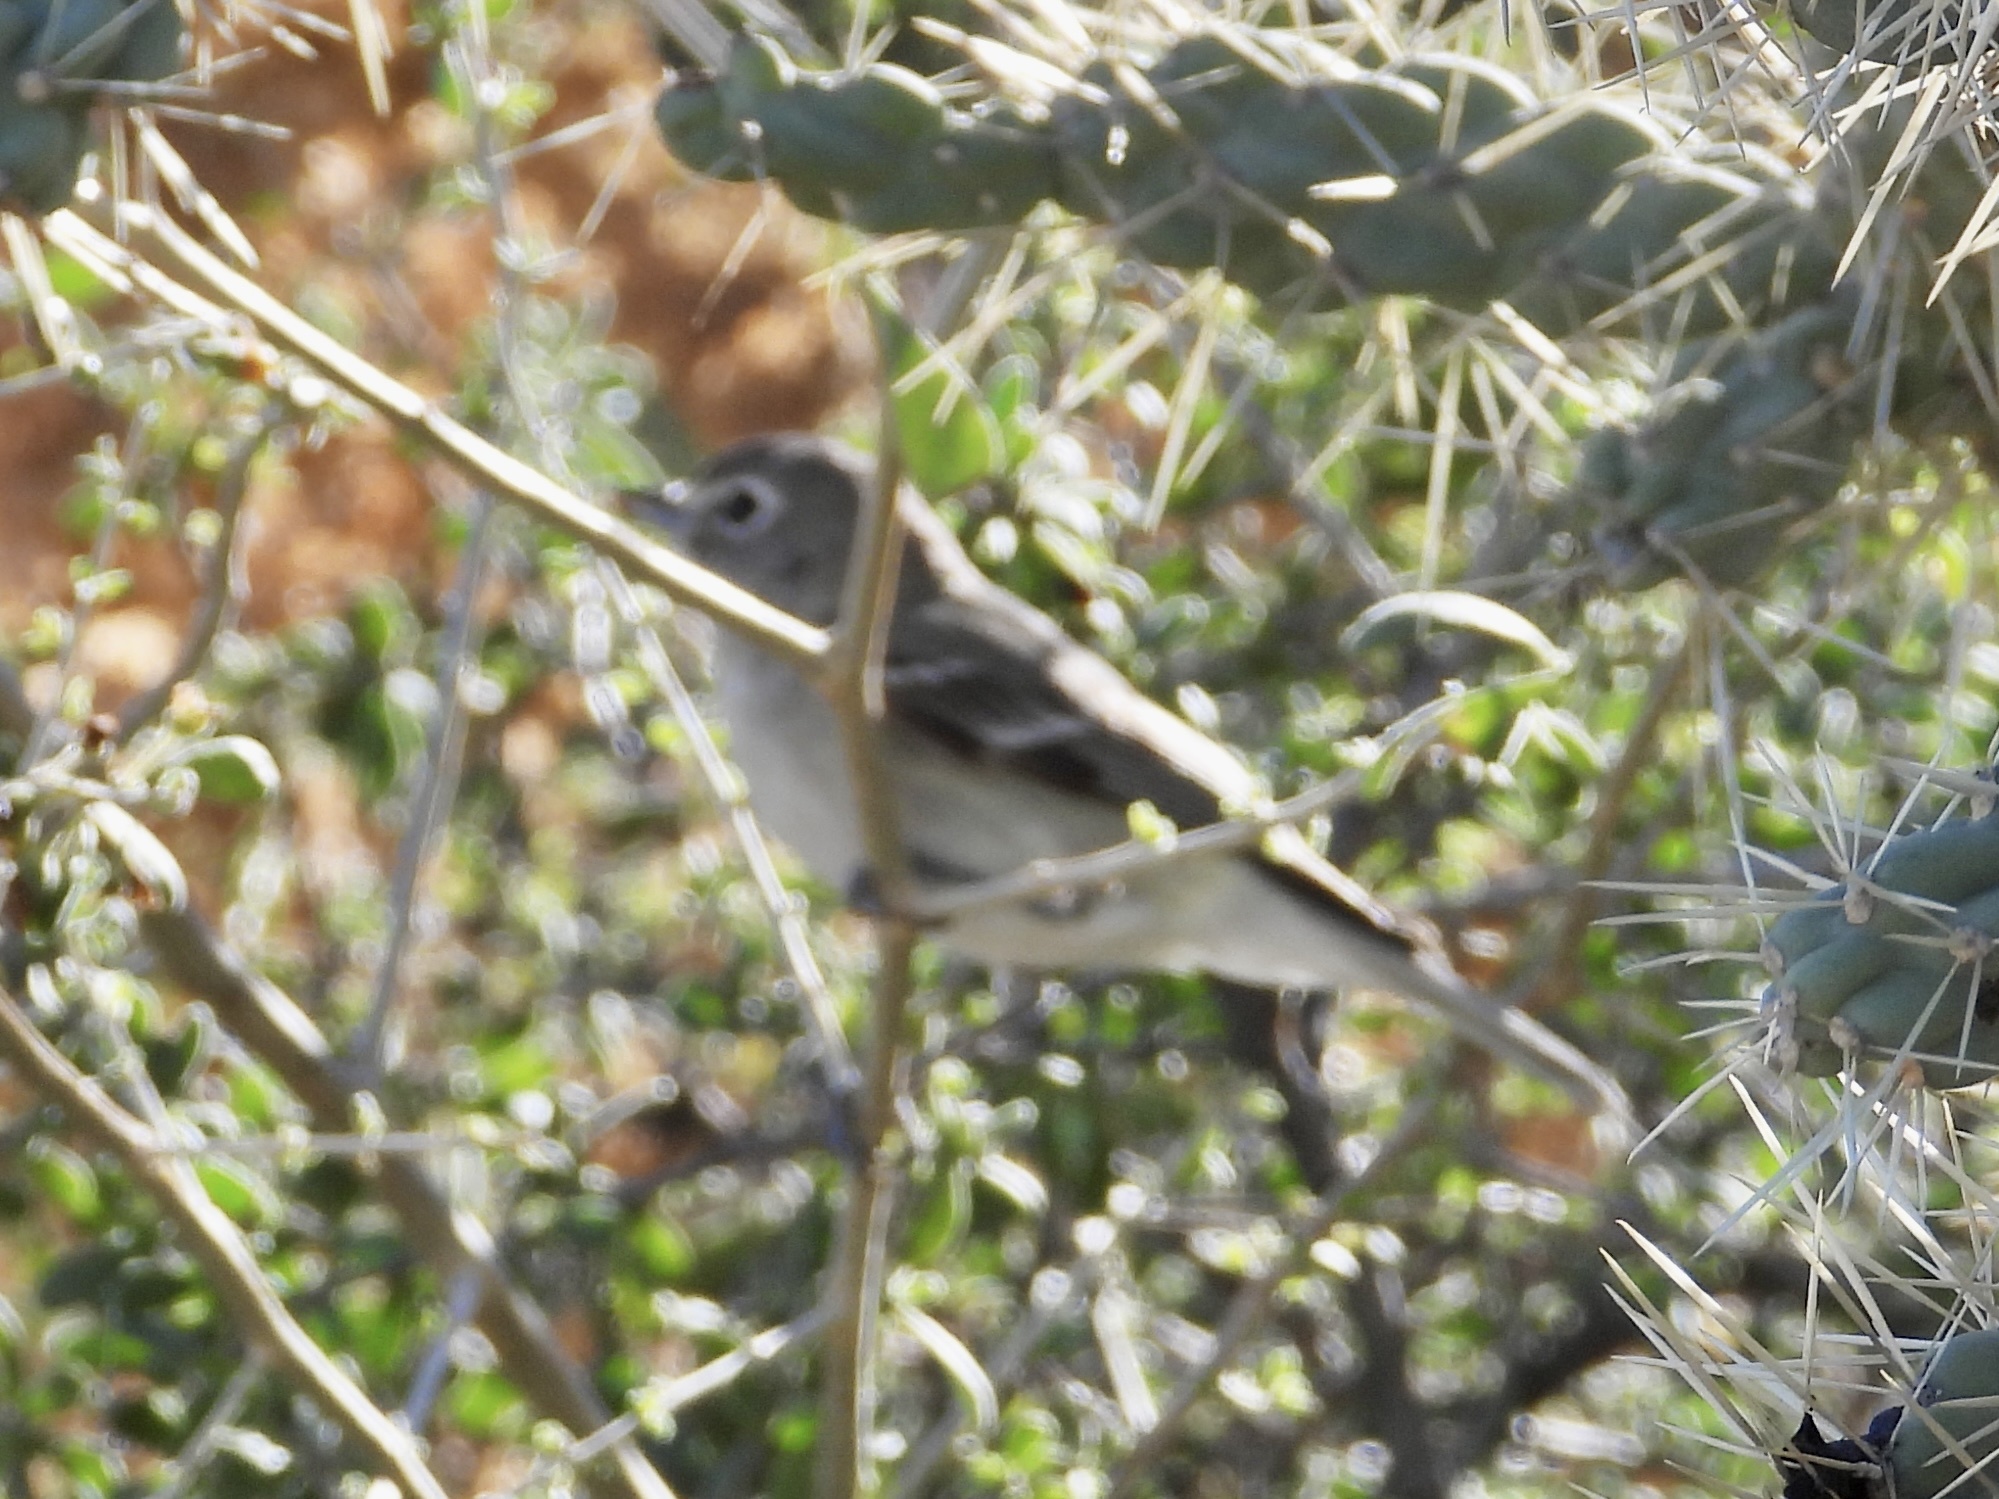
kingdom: Animalia
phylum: Chordata
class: Aves
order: Passeriformes
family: Vireonidae
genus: Vireo
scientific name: Vireo plumbeus
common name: Plumbeous vireo
